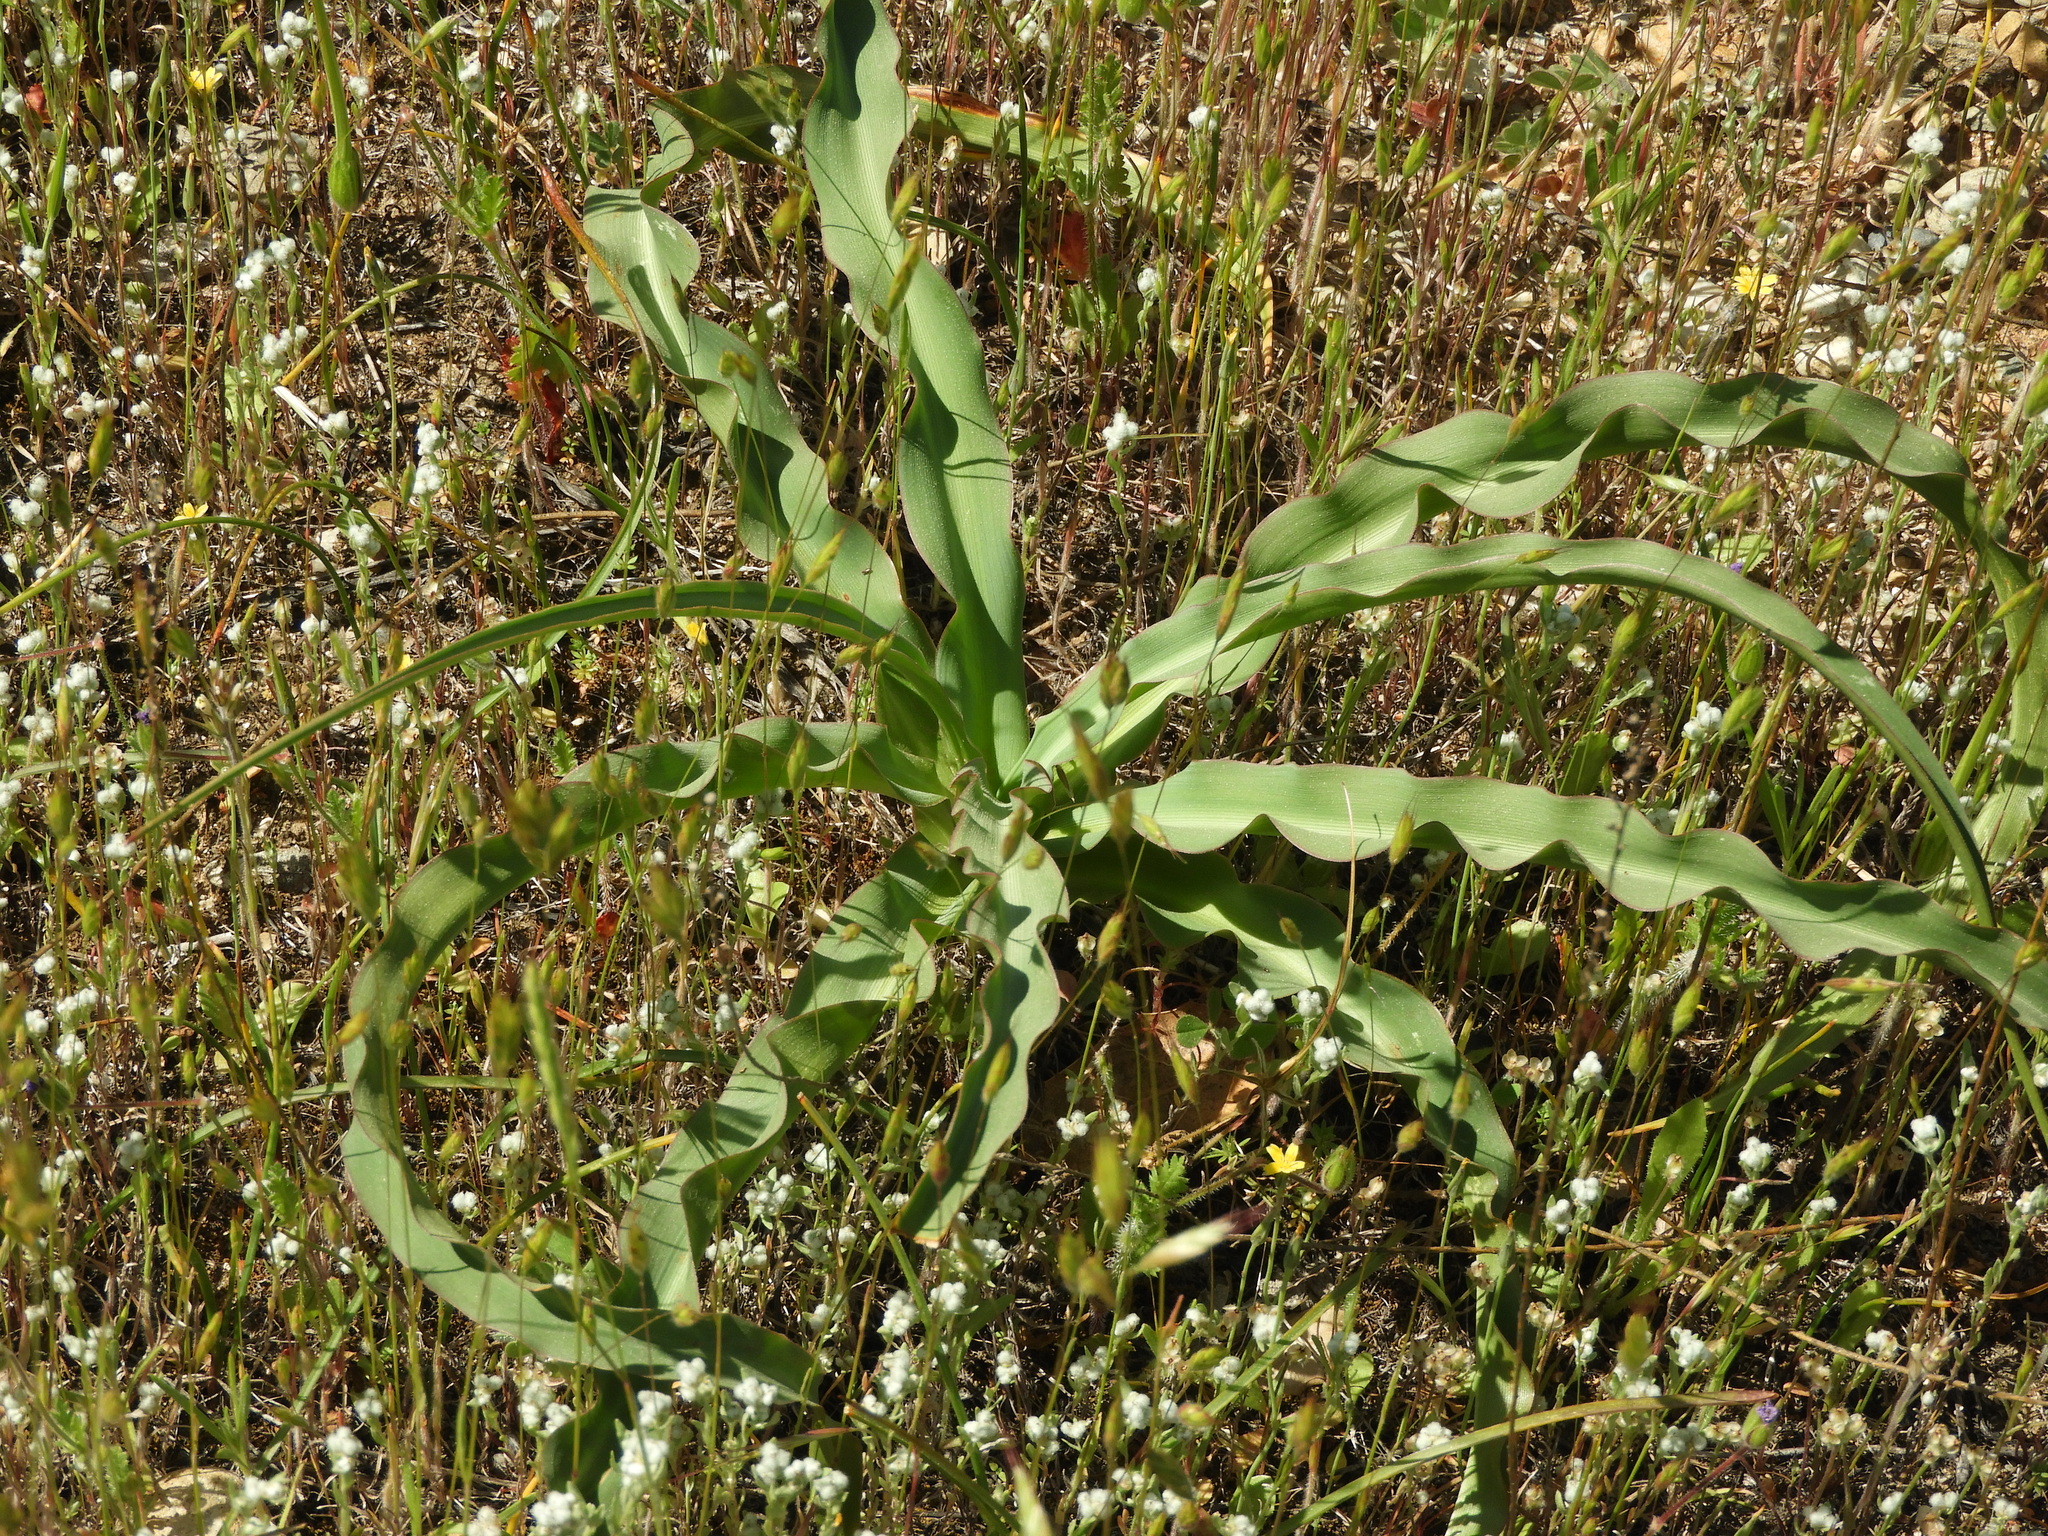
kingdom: Plantae
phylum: Tracheophyta
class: Liliopsida
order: Asparagales
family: Asparagaceae
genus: Chlorogalum
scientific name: Chlorogalum pomeridianum
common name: Amole
